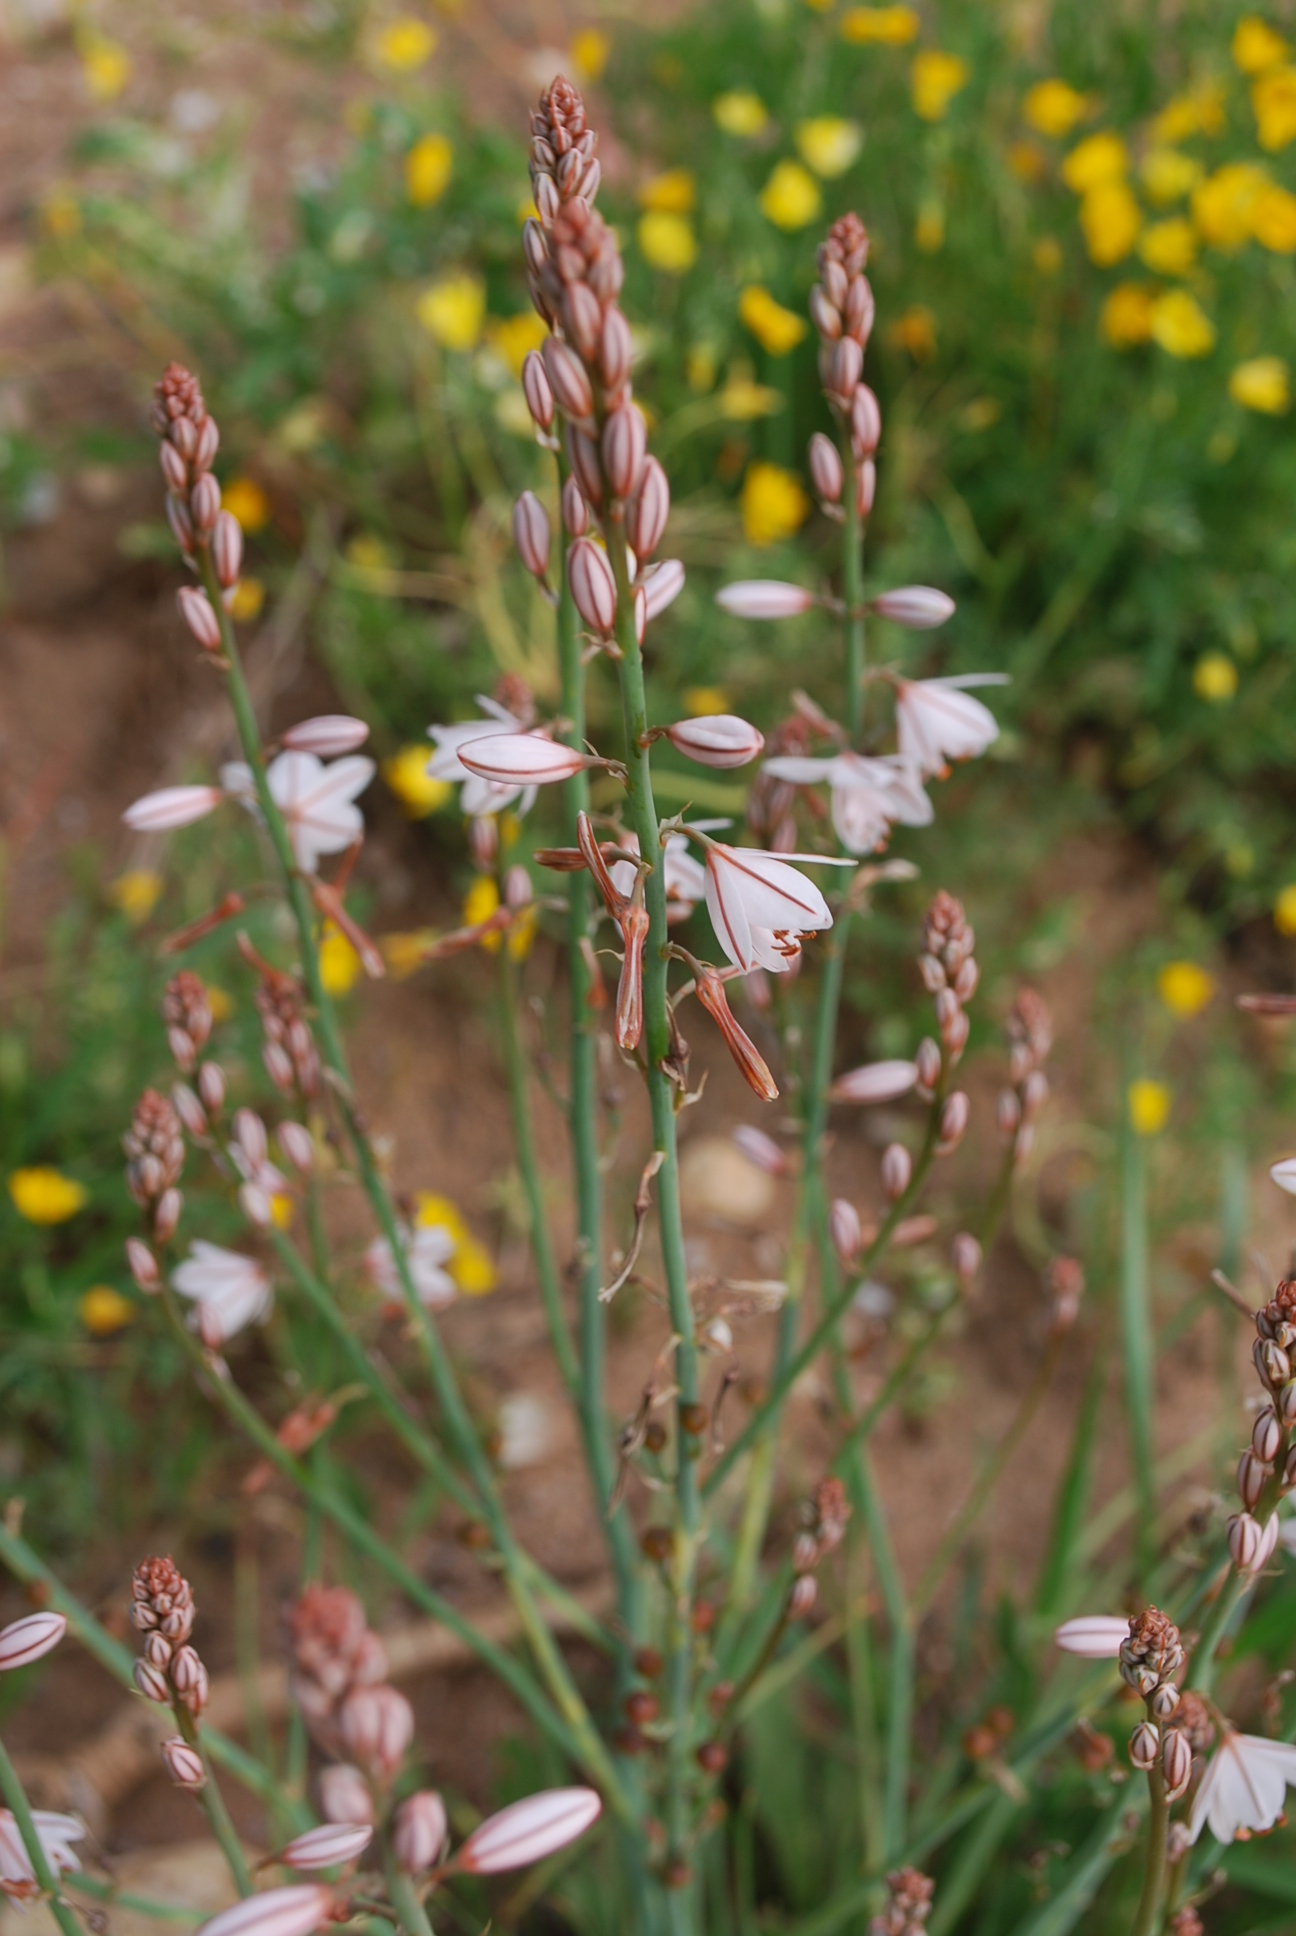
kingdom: Plantae
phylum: Tracheophyta
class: Liliopsida
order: Asparagales
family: Asphodelaceae
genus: Asphodelus
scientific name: Asphodelus fistulosus
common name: Onionweed
